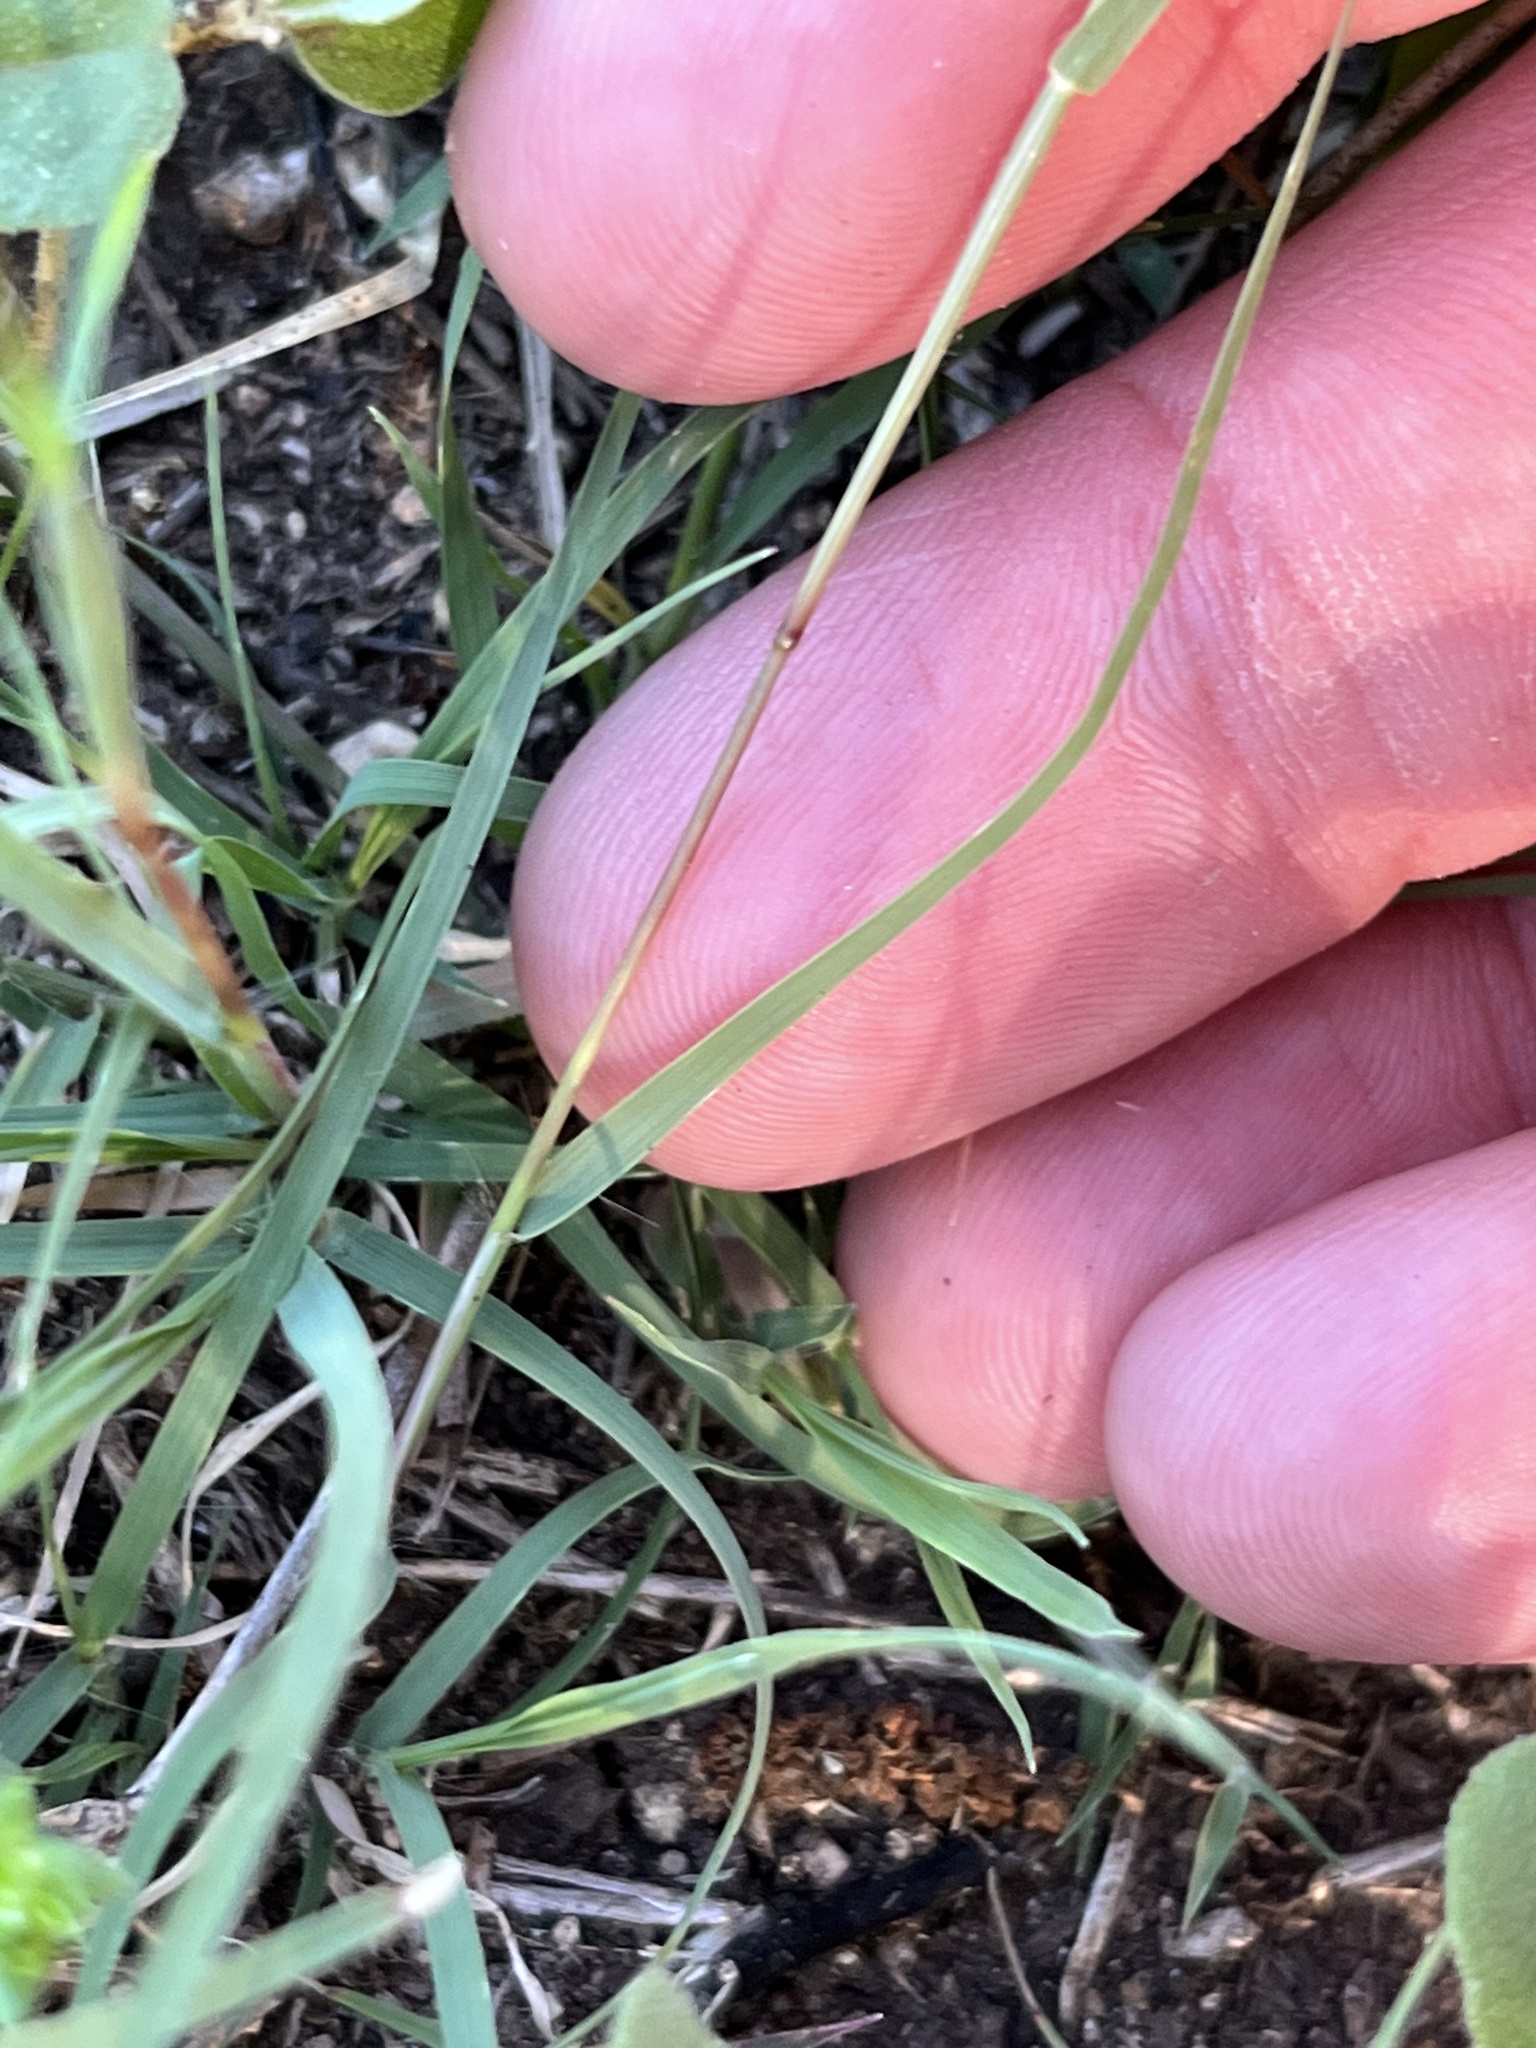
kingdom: Plantae
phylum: Tracheophyta
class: Liliopsida
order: Poales
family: Poaceae
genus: Bouteloua
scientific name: Bouteloua dactyloides
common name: Buffalo grass
